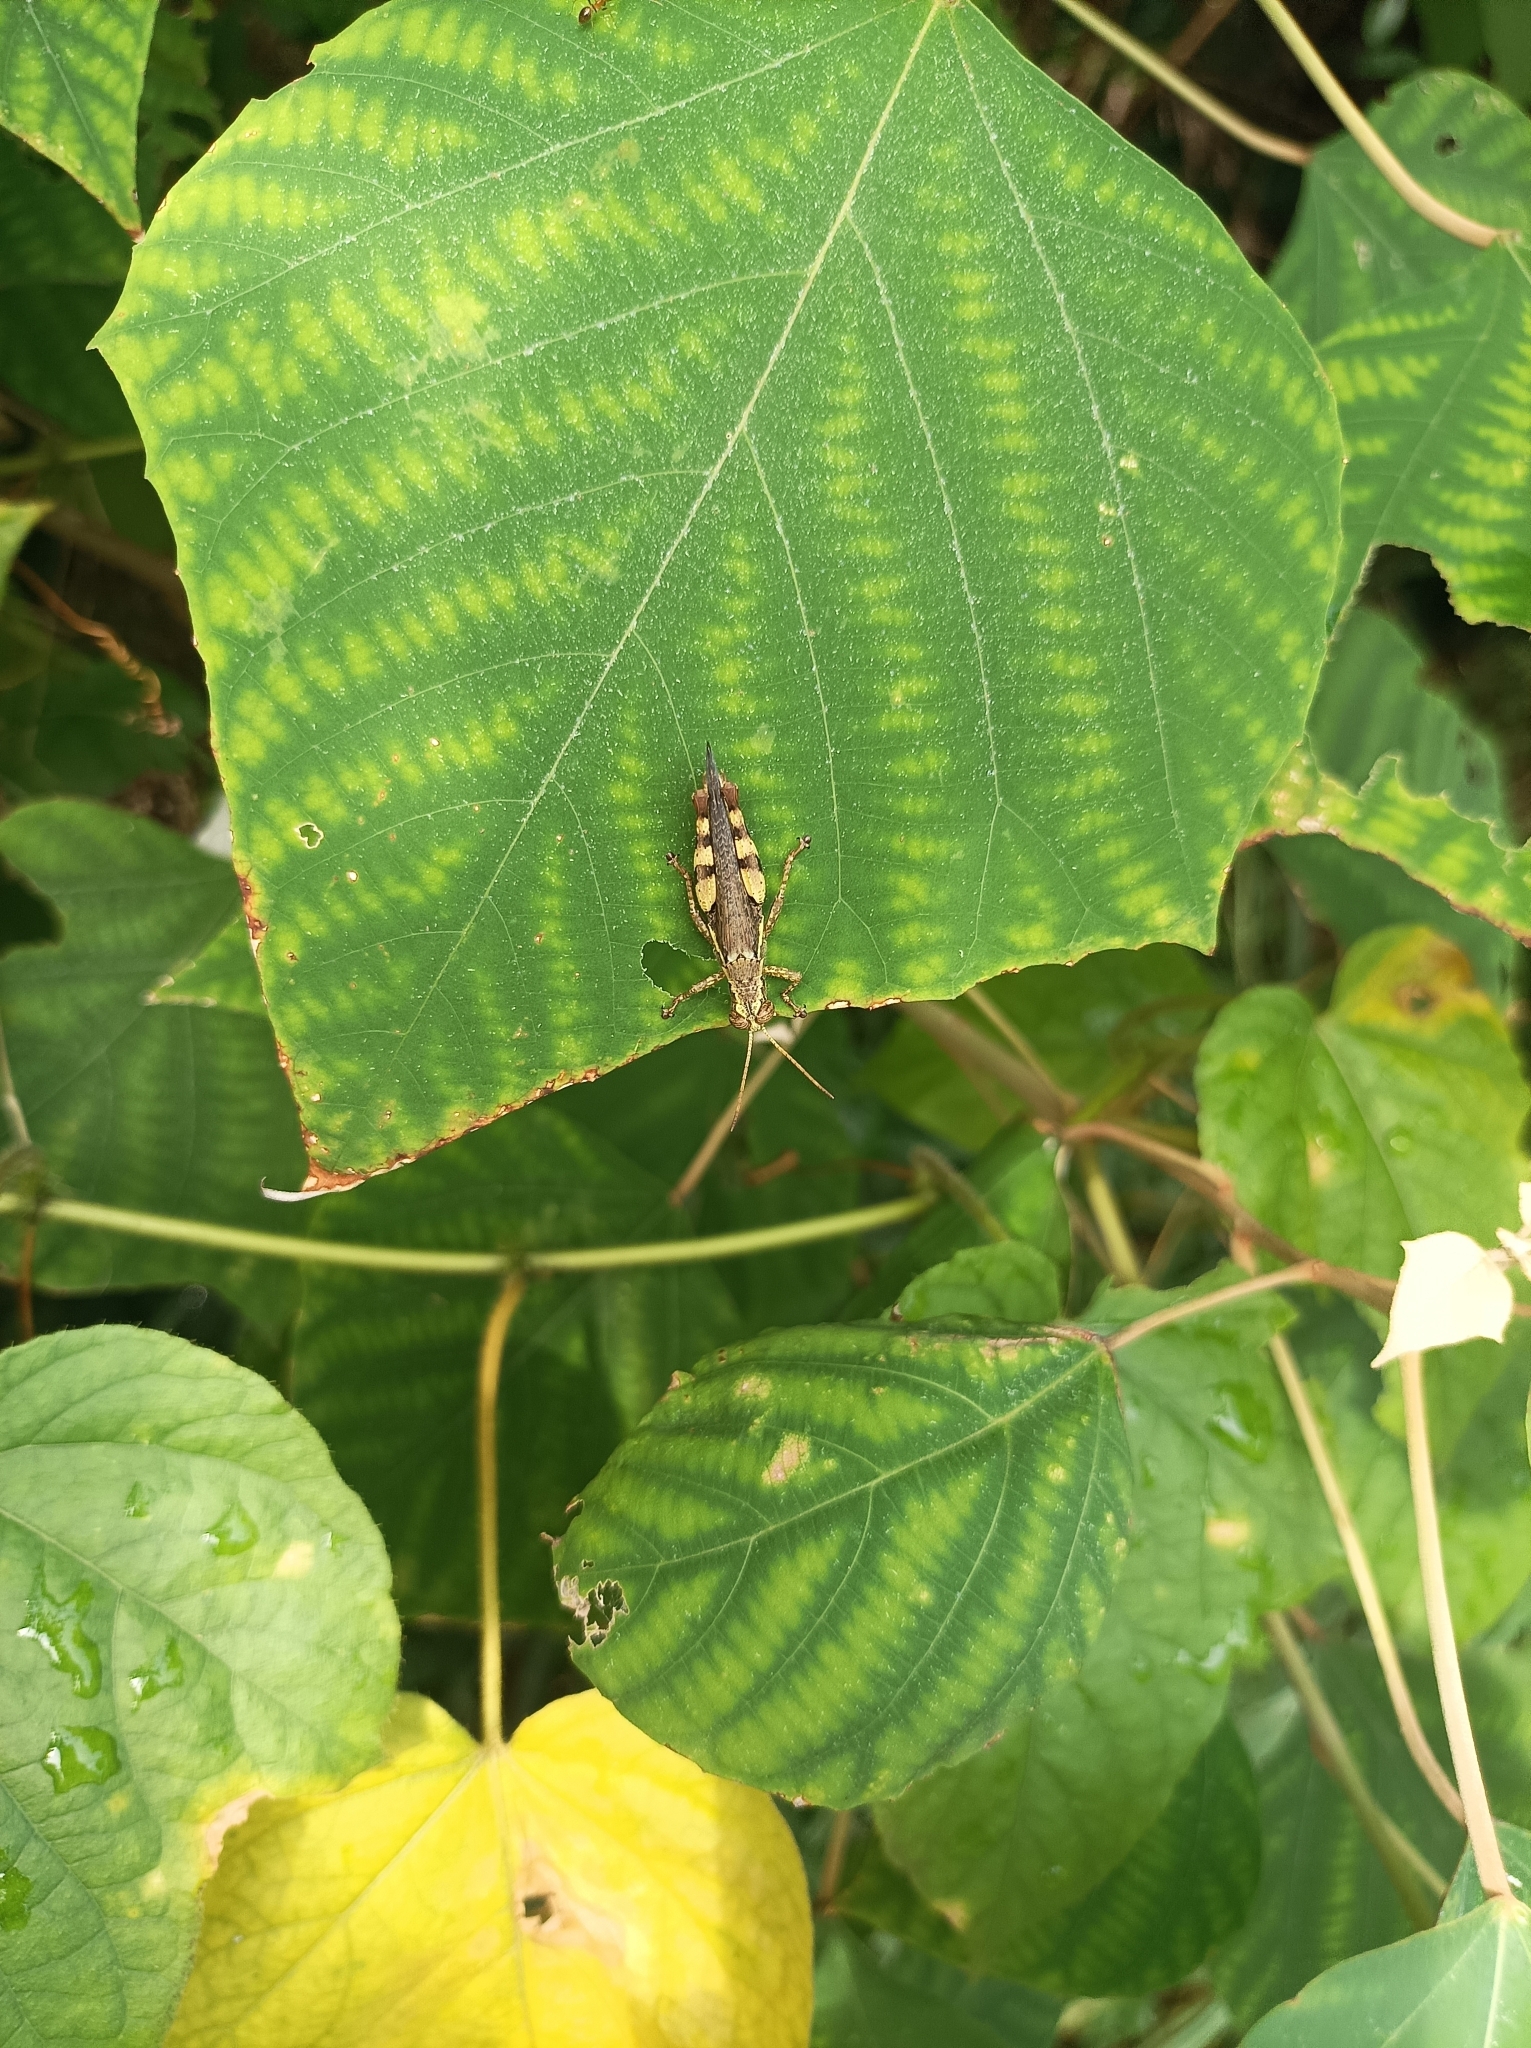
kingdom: Animalia
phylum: Arthropoda
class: Insecta
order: Orthoptera
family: Acrididae
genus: Xenocatantops
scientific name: Xenocatantops humile
